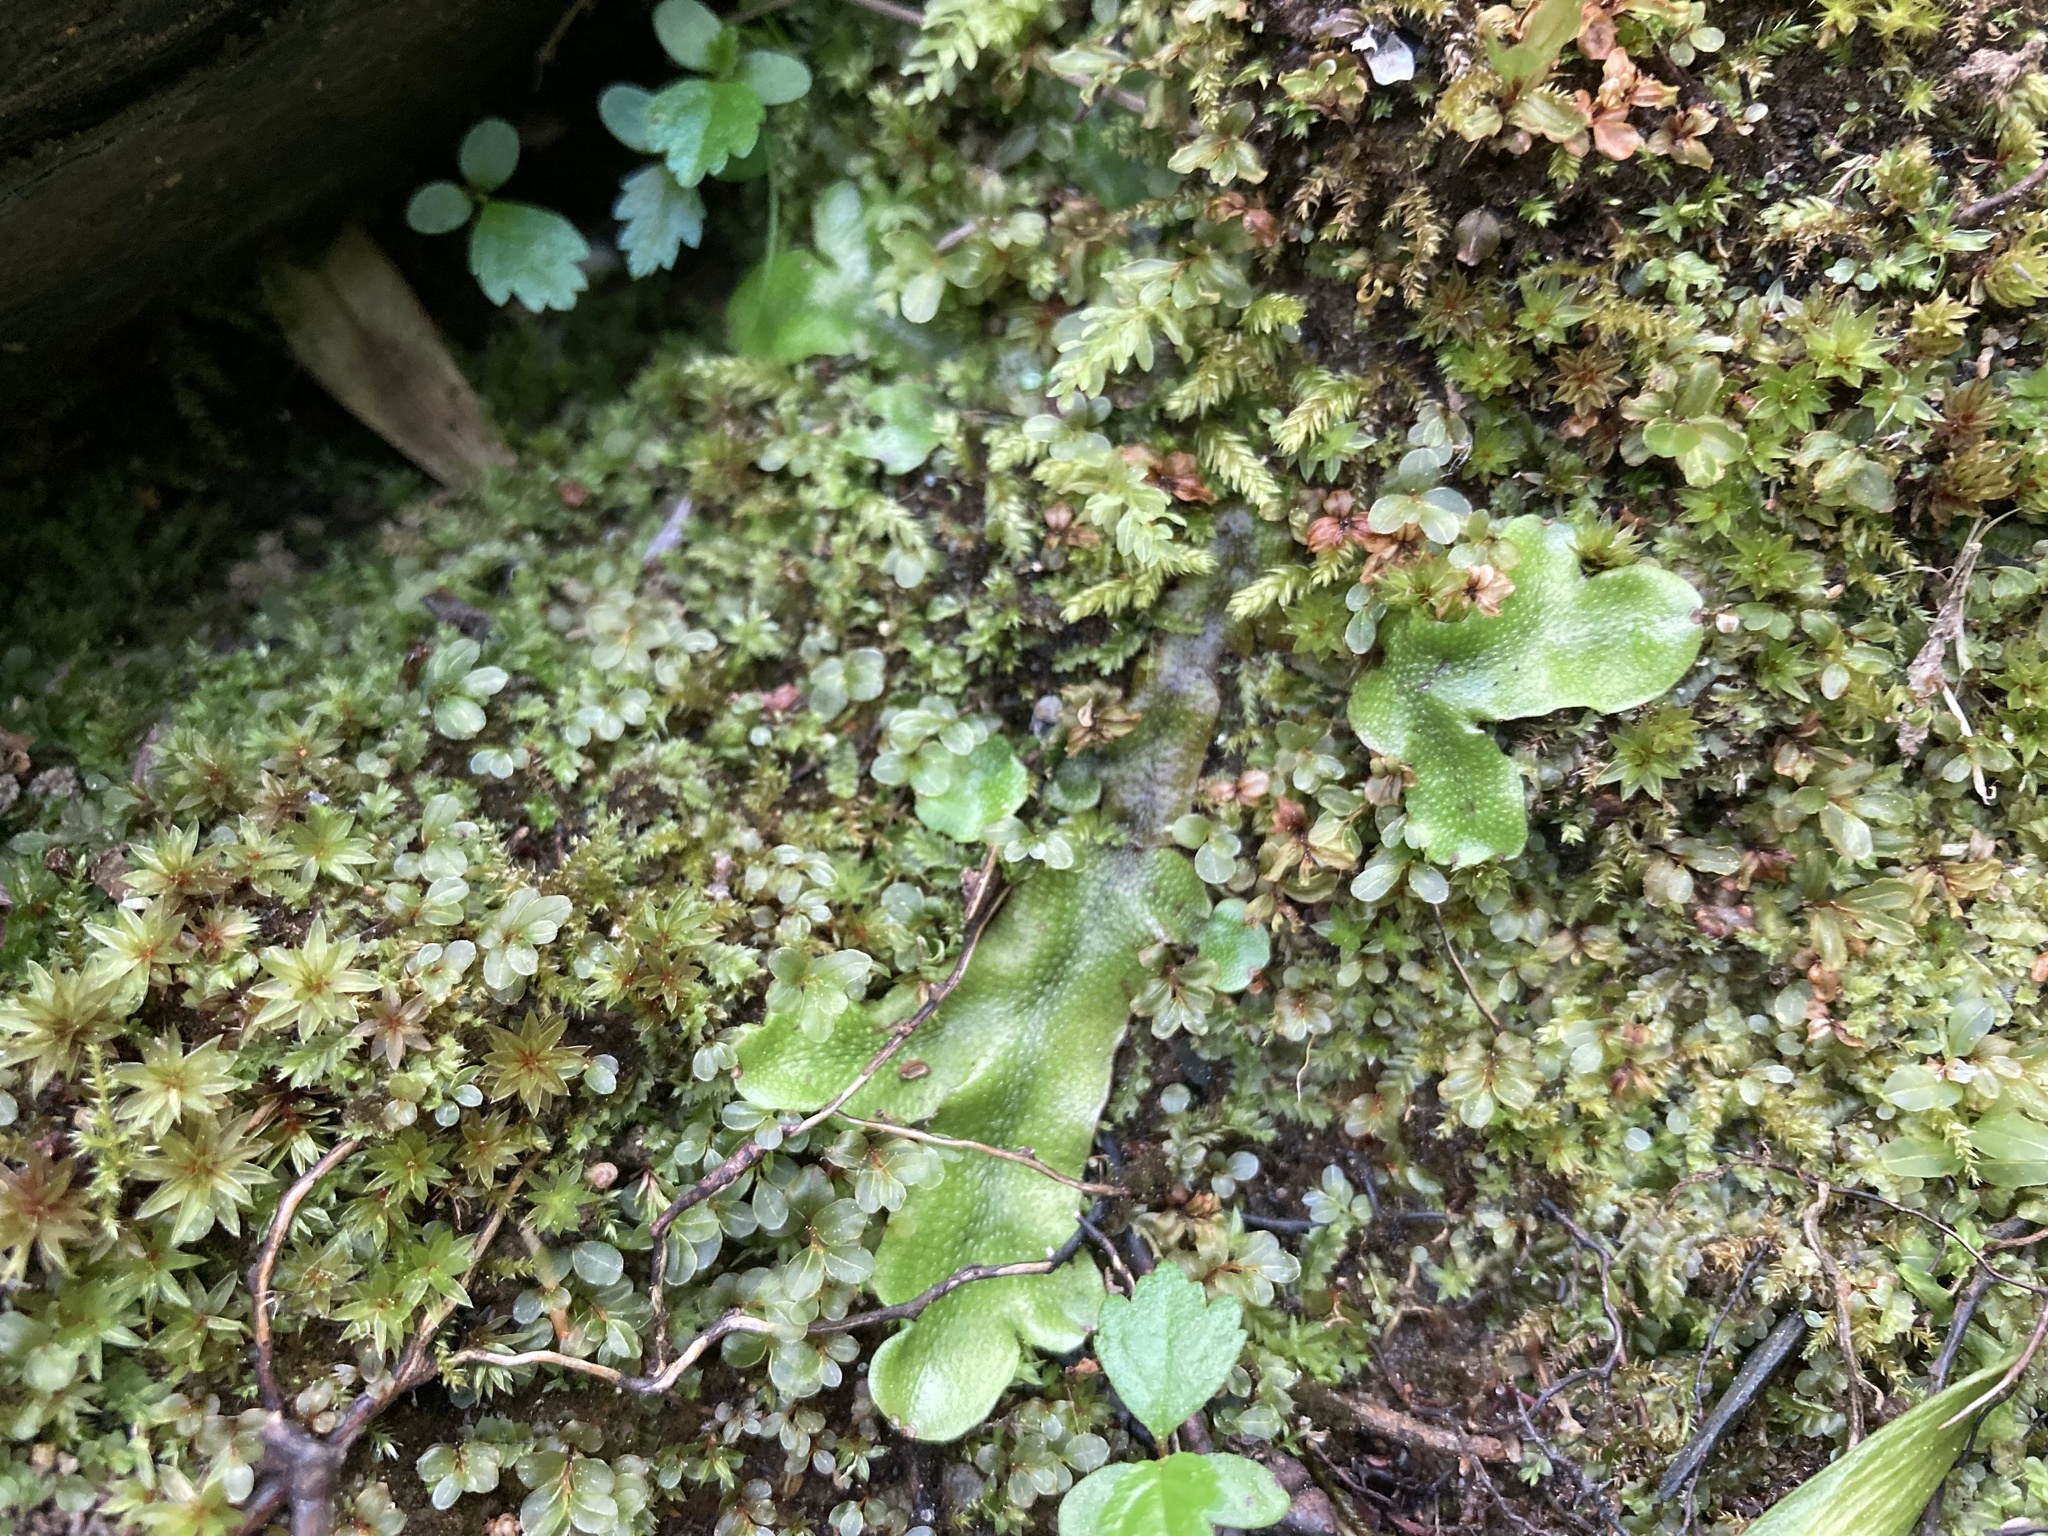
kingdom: Plantae
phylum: Marchantiophyta
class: Marchantiopsida
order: Marchantiales
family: Conocephalaceae
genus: Conocephalum
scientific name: Conocephalum conicum
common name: Great scented liverwort
